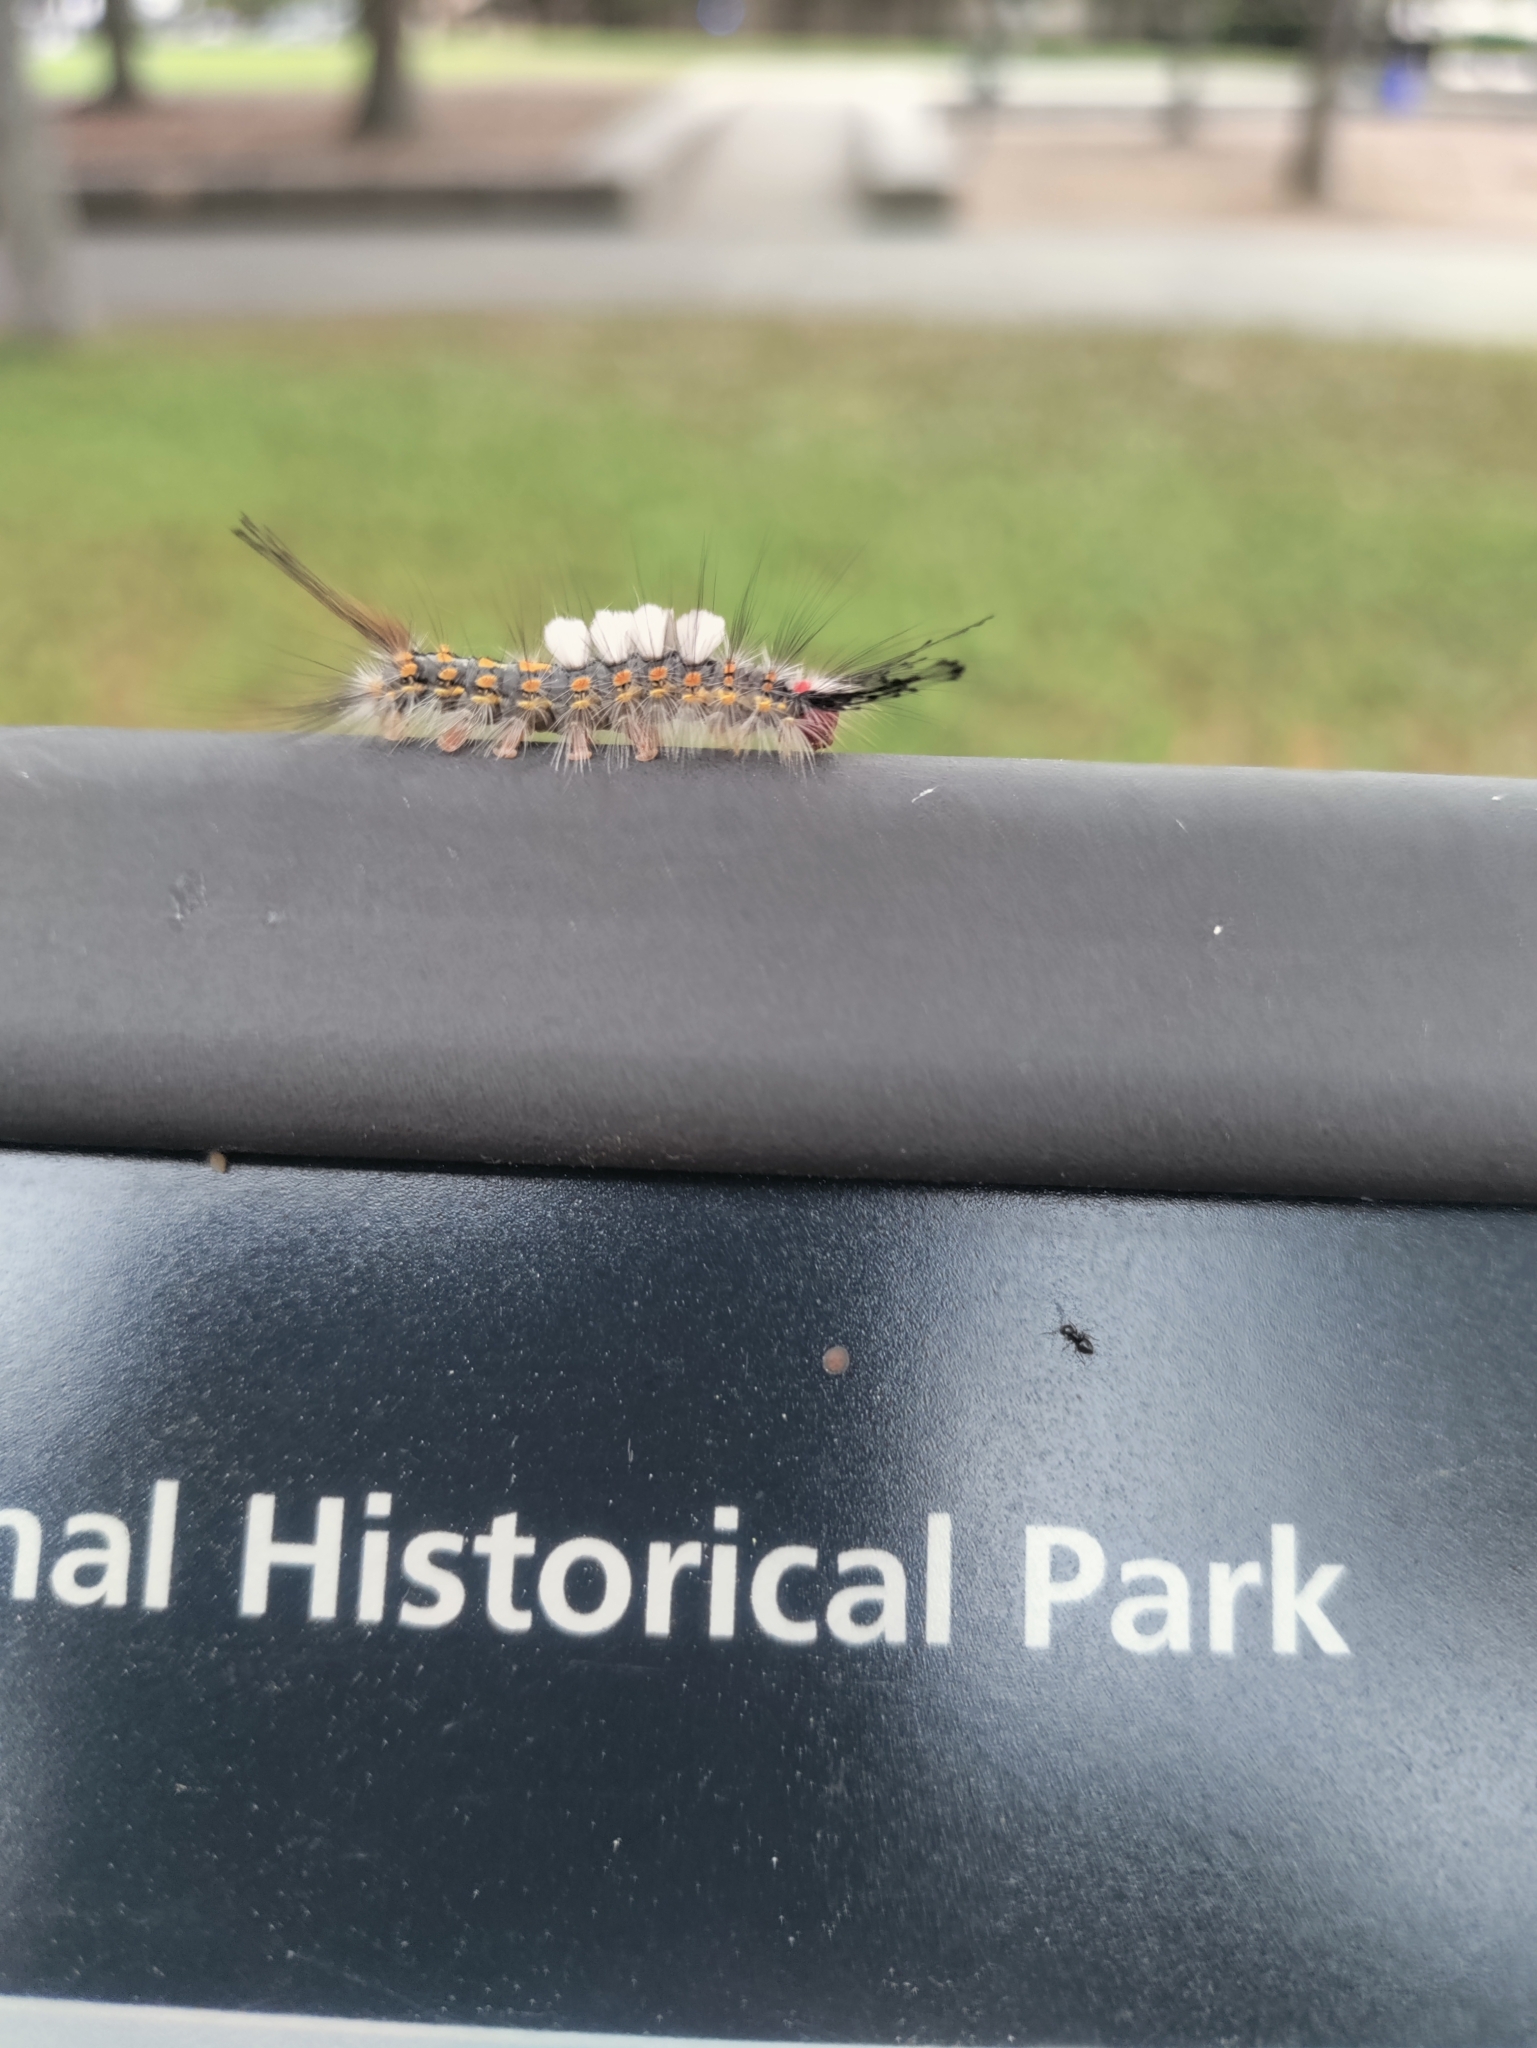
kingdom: Animalia
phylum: Arthropoda
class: Insecta
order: Lepidoptera
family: Erebidae
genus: Orgyia
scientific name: Orgyia detrita
